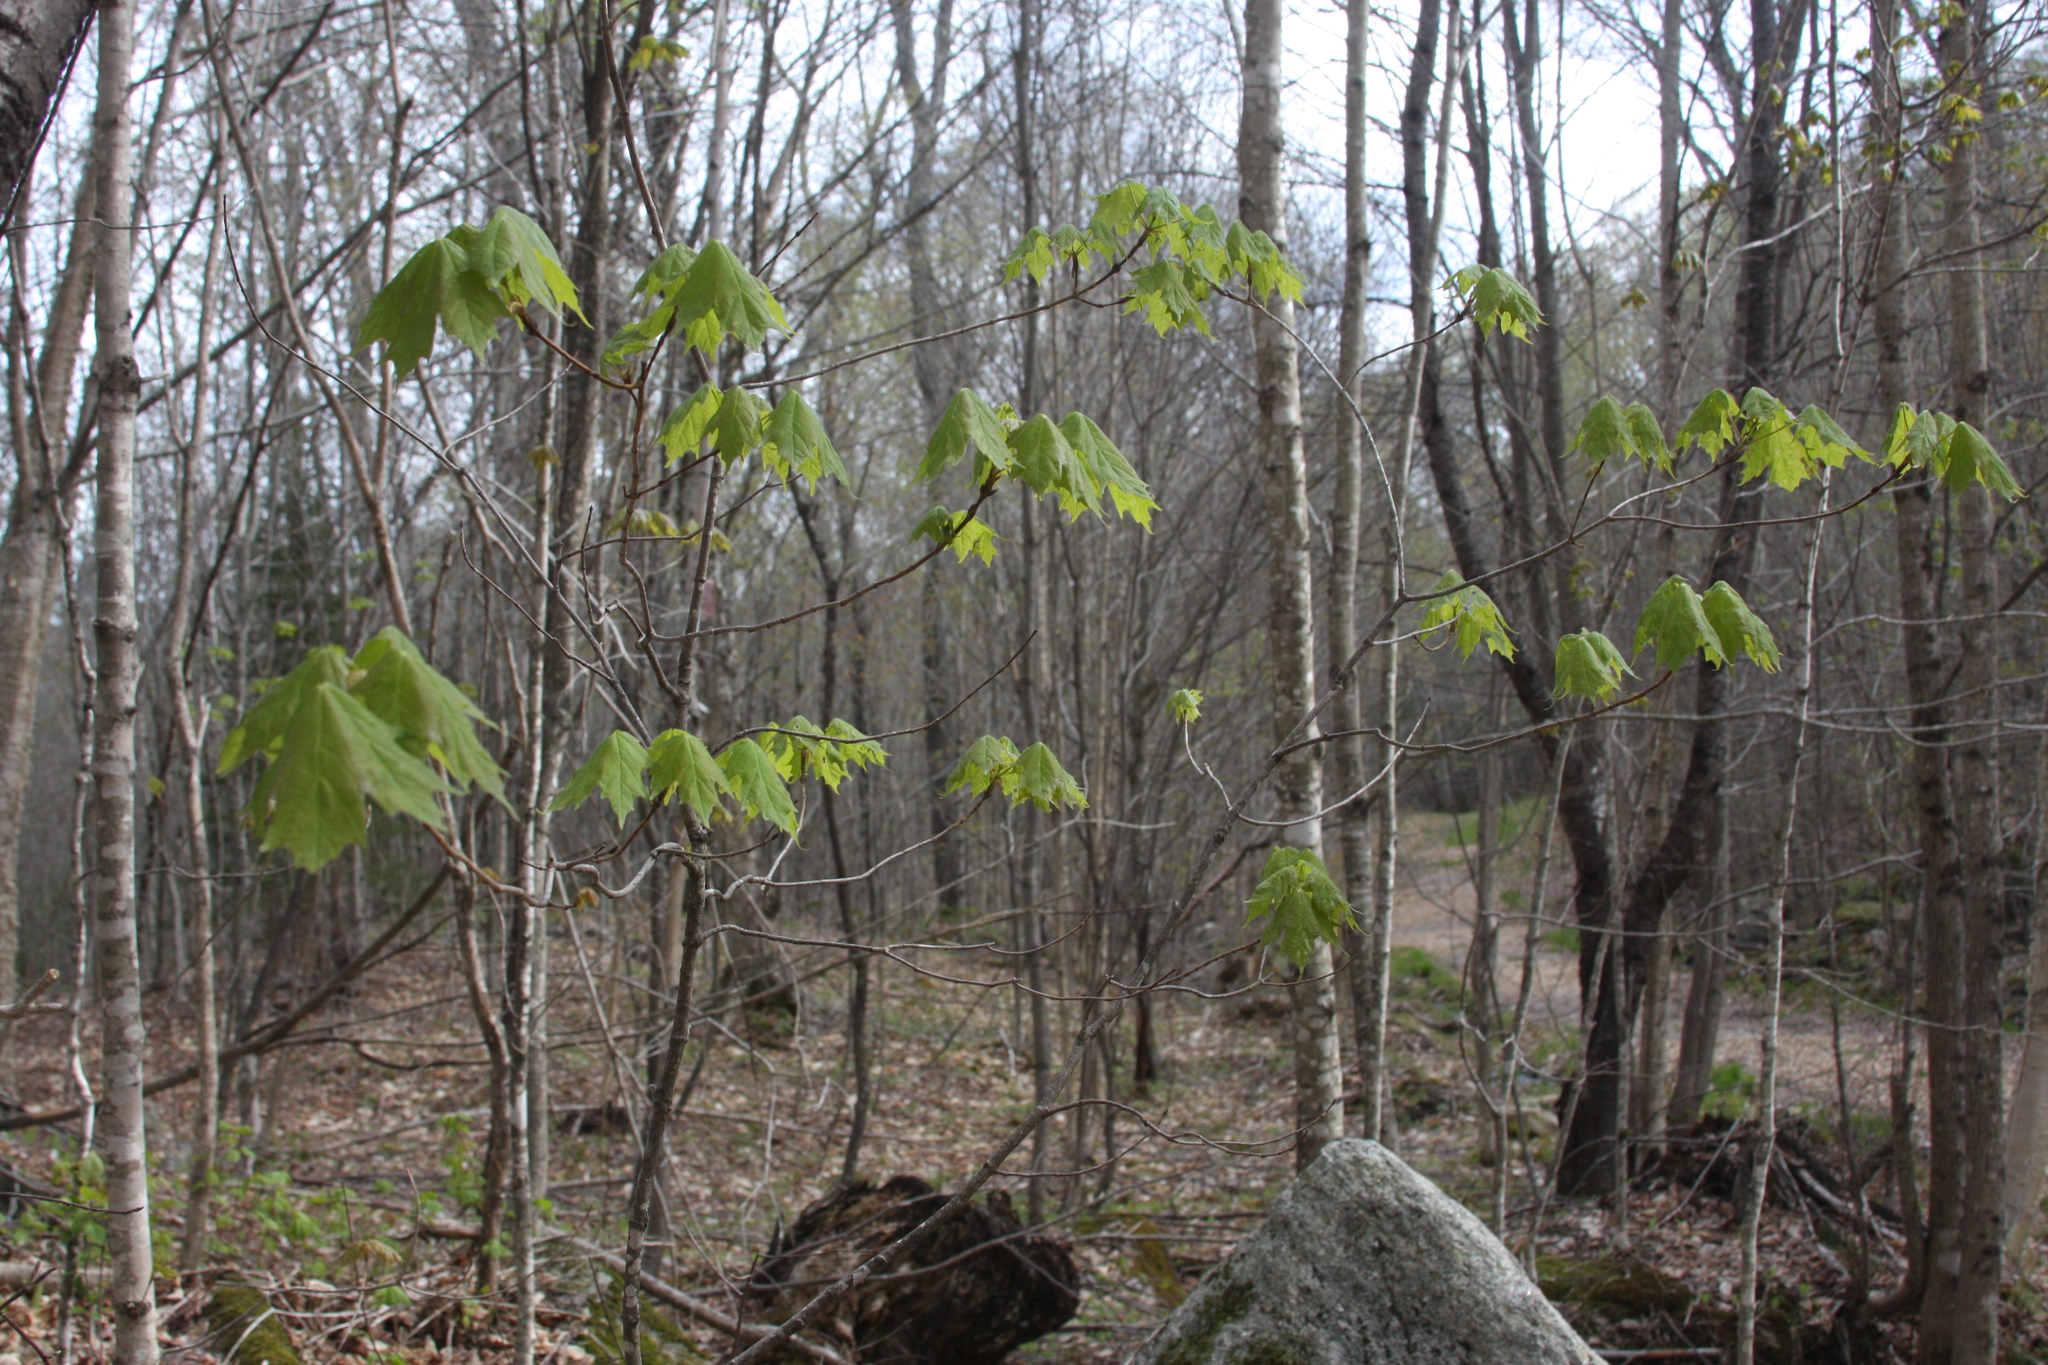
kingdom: Plantae
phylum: Tracheophyta
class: Magnoliopsida
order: Sapindales
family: Sapindaceae
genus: Acer
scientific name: Acer saccharum
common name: Sugar maple
